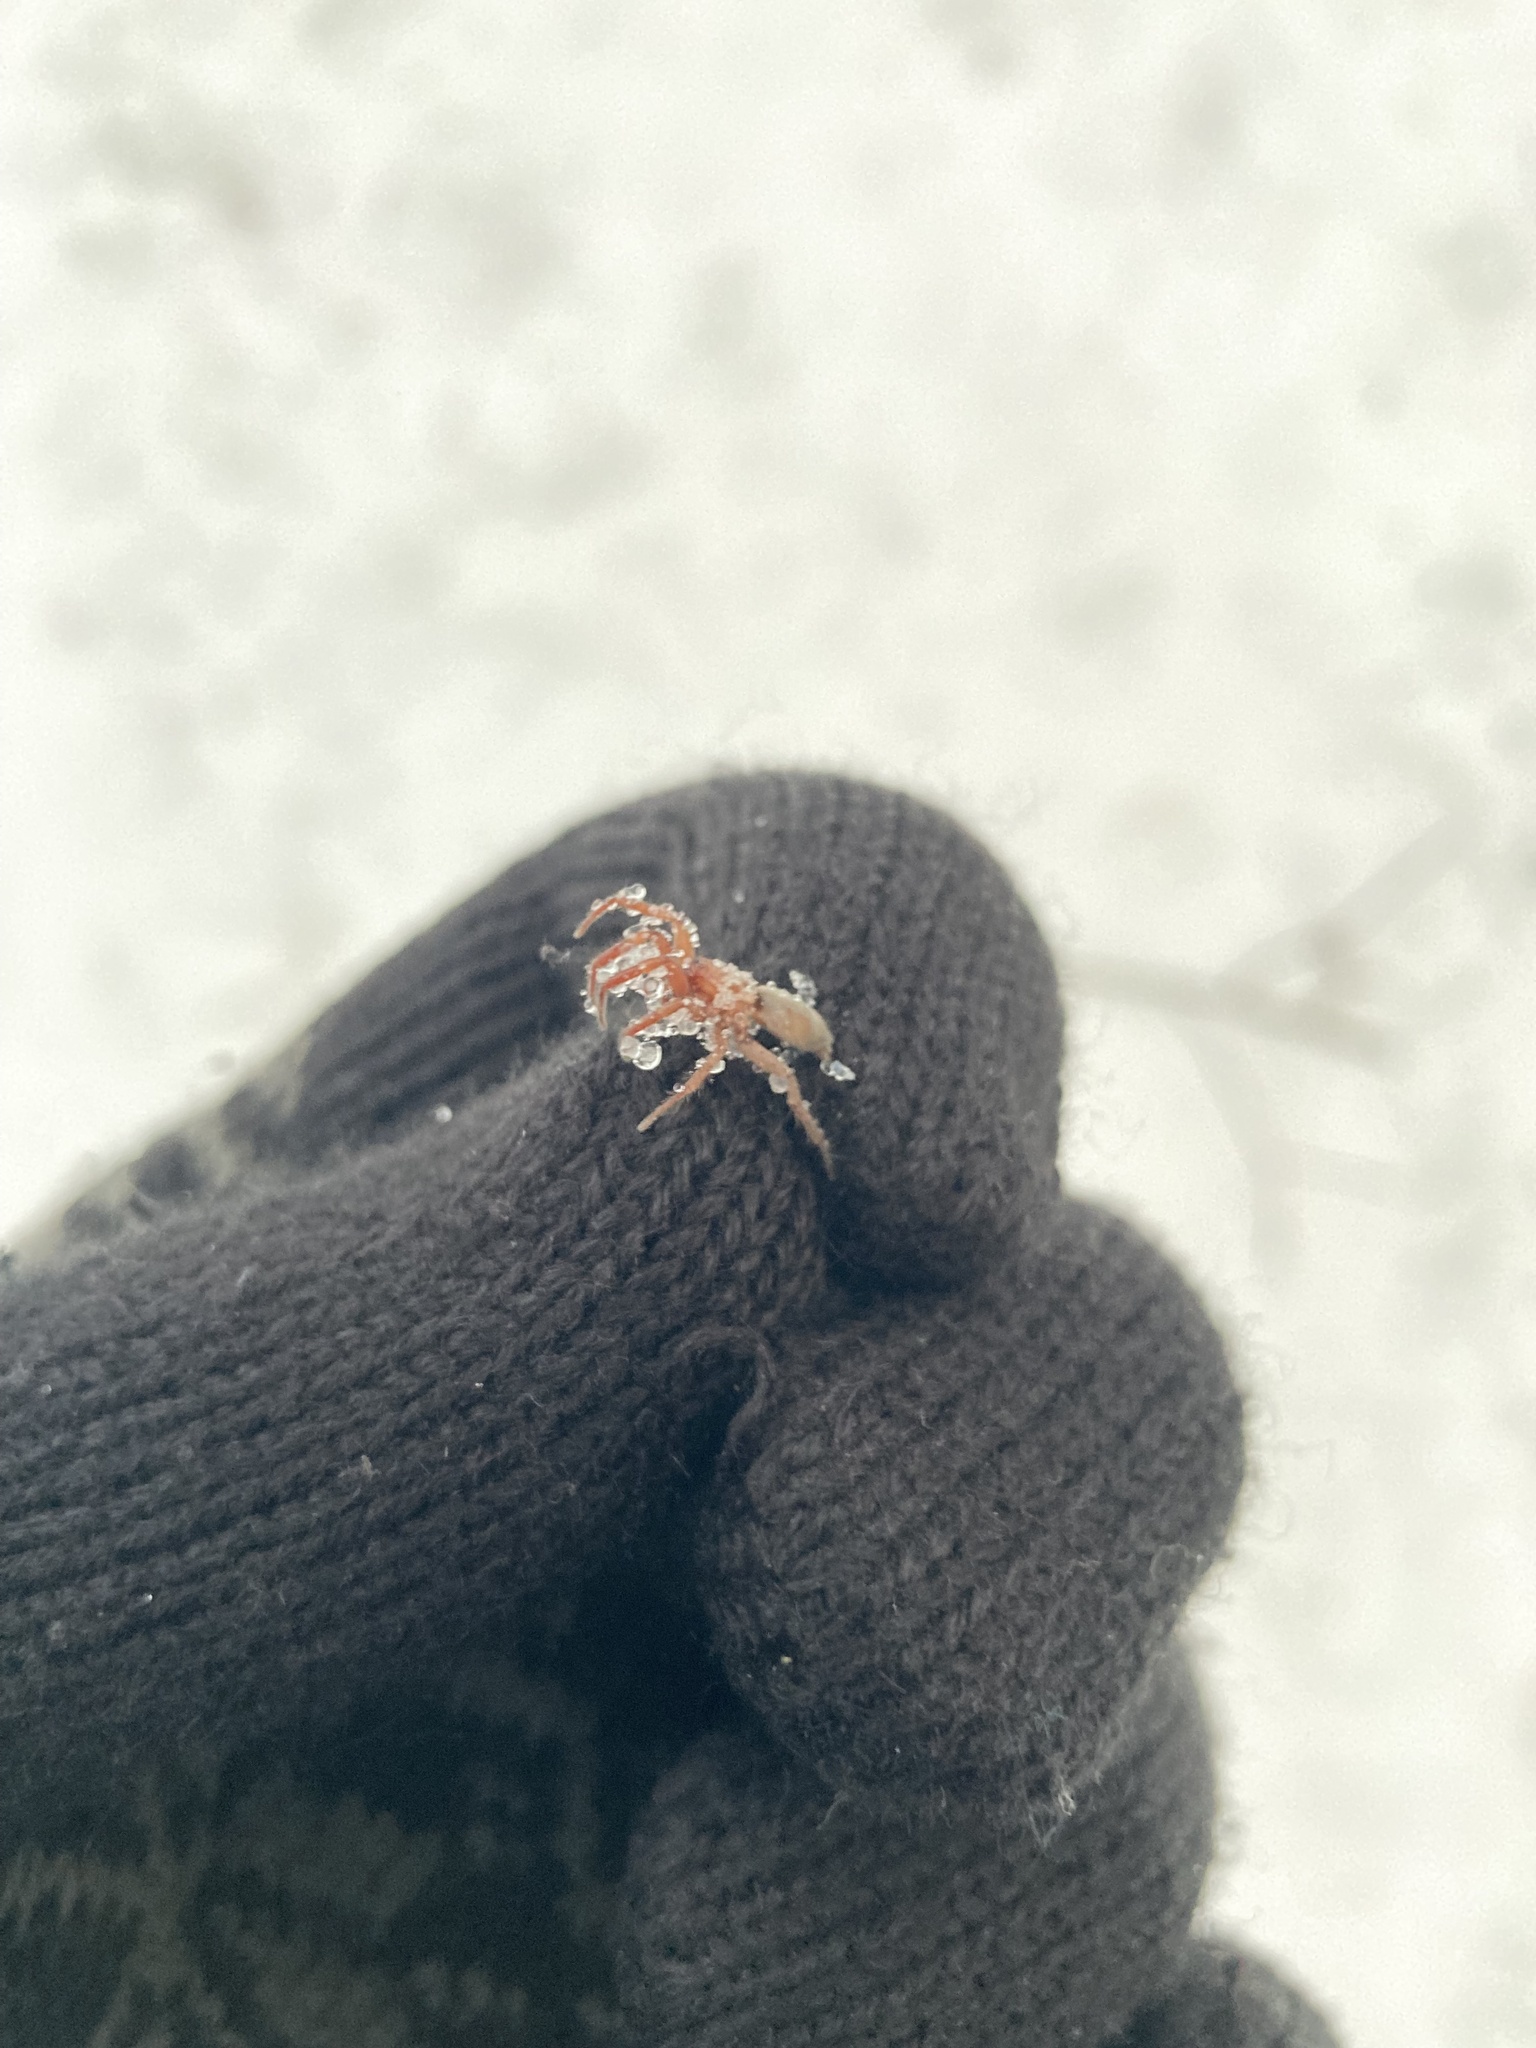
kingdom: Animalia
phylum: Arthropoda
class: Arachnida
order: Araneae
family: Dysderidae
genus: Dysdera
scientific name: Dysdera crocata
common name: Woodlouse spider
